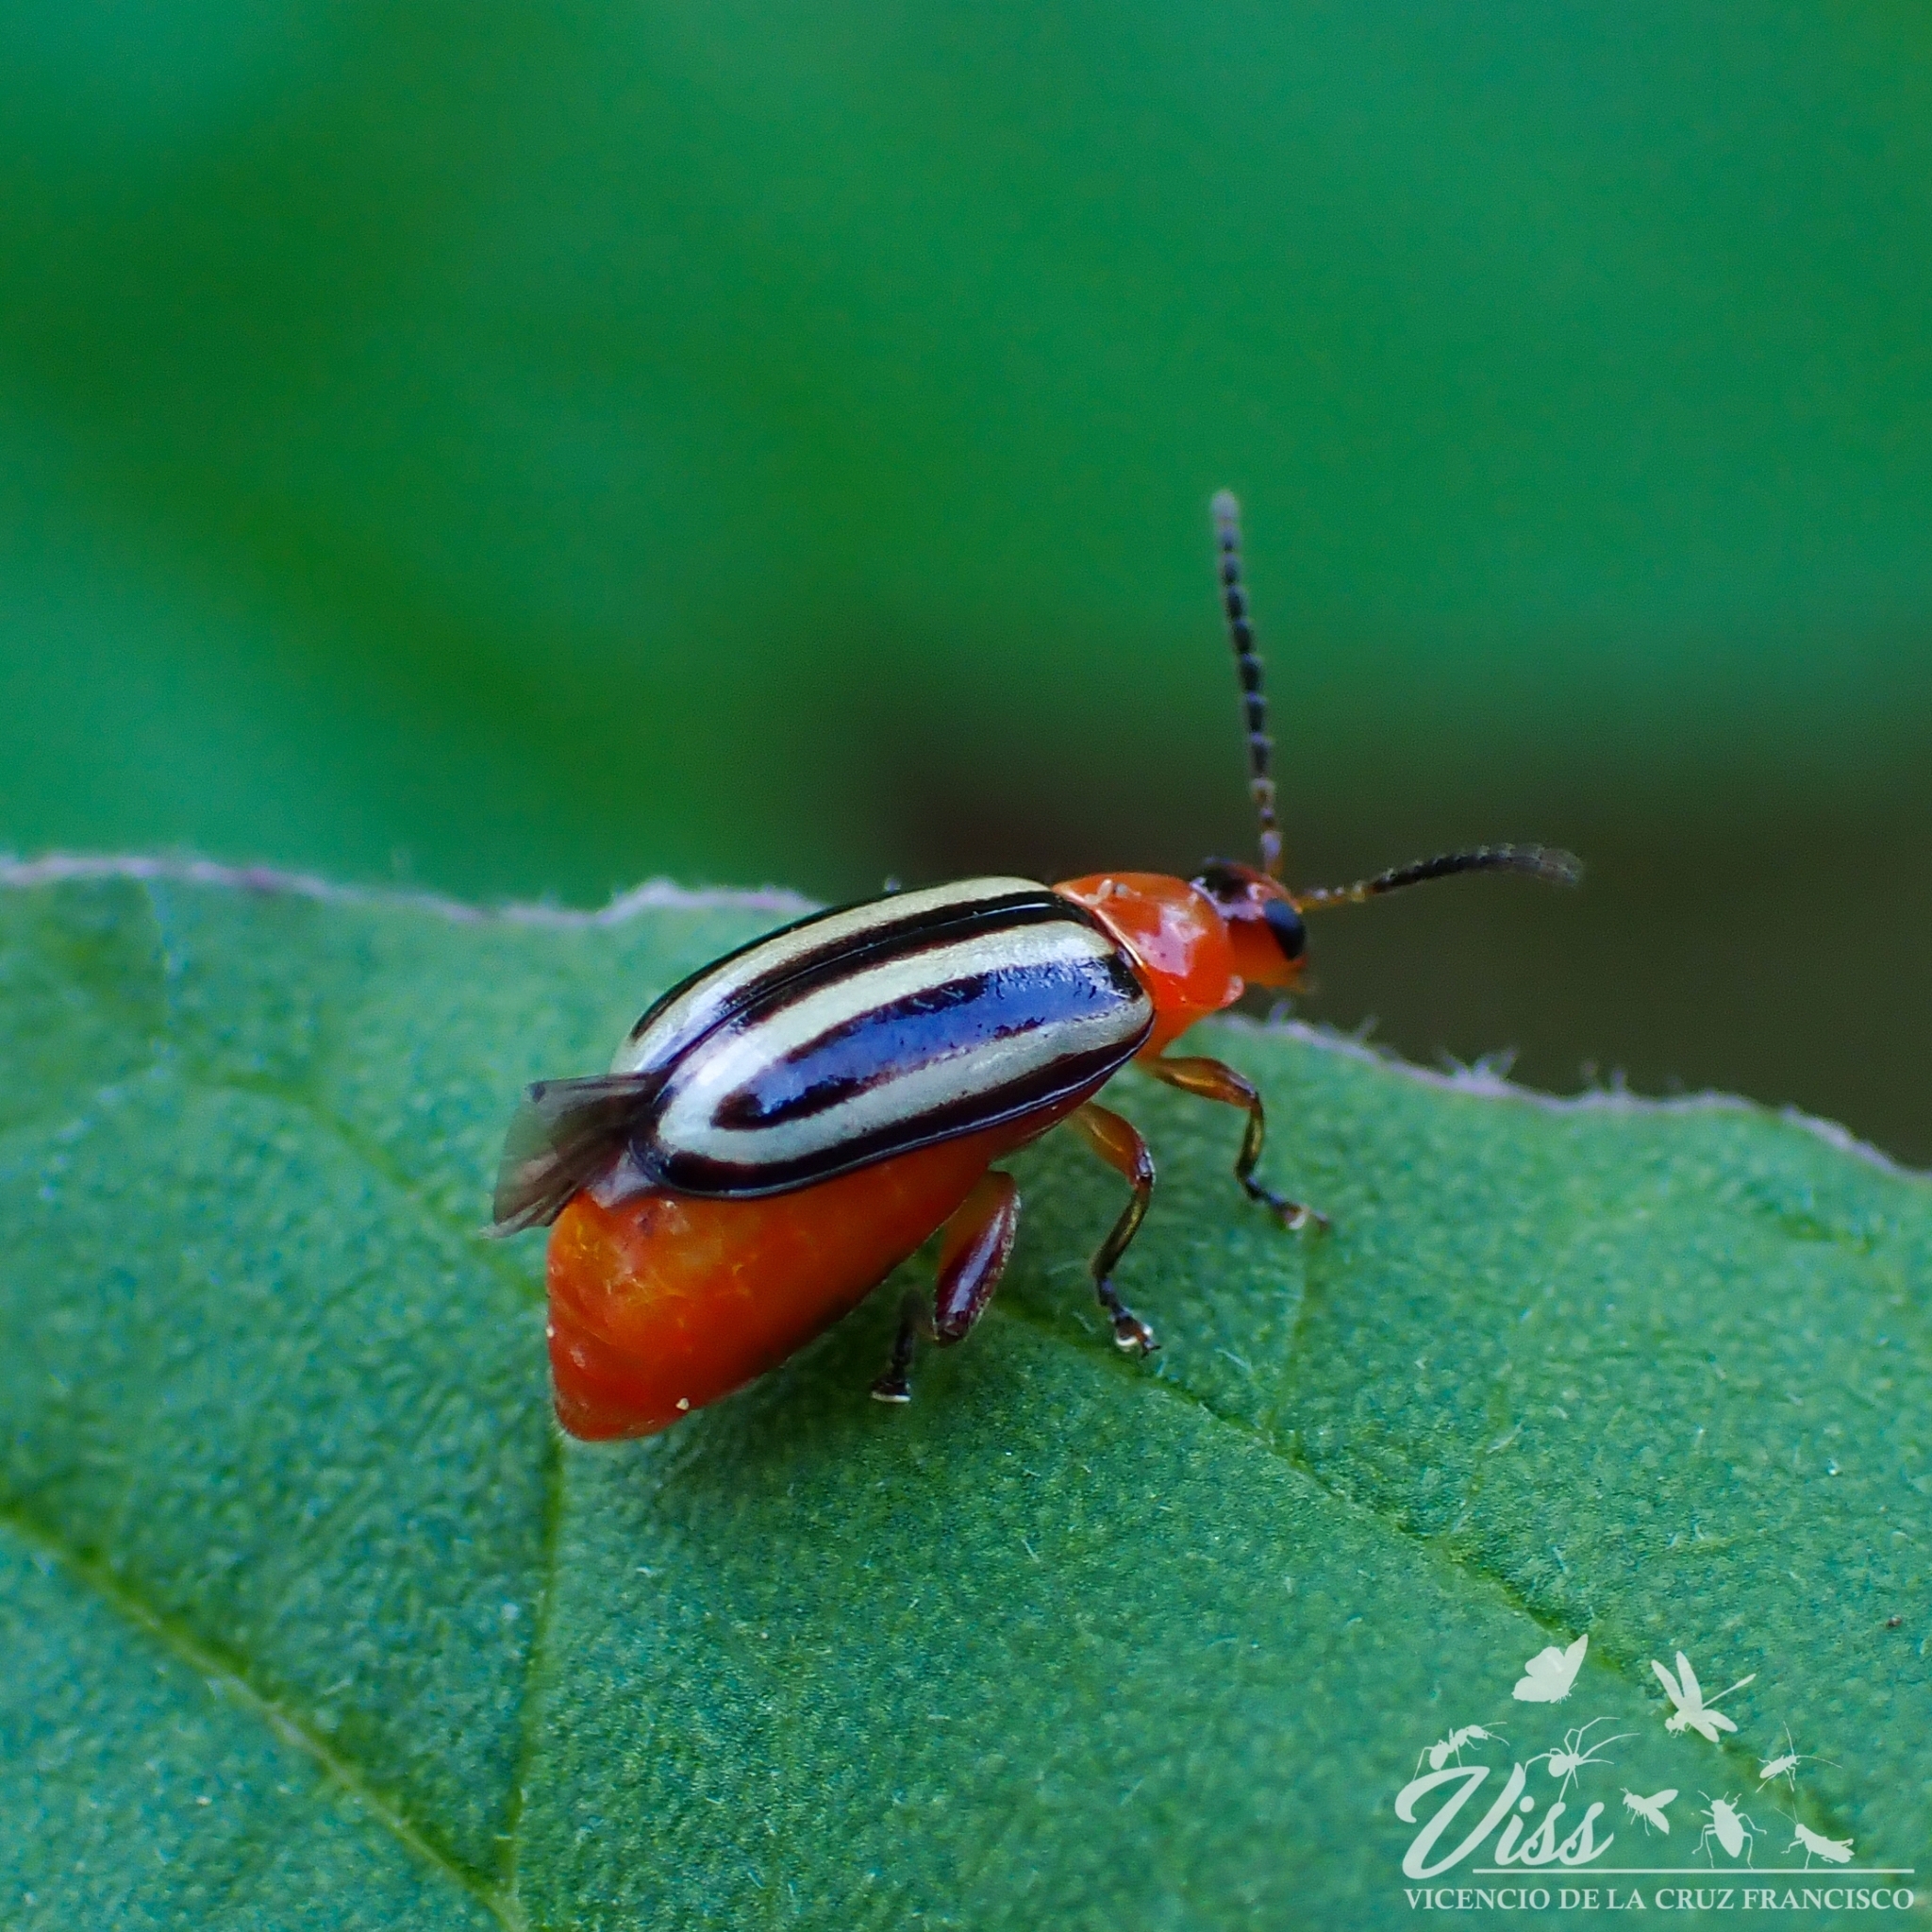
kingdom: Animalia
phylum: Arthropoda
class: Insecta
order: Coleoptera
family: Chrysomelidae
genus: Disonycha
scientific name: Disonycha glabrata
